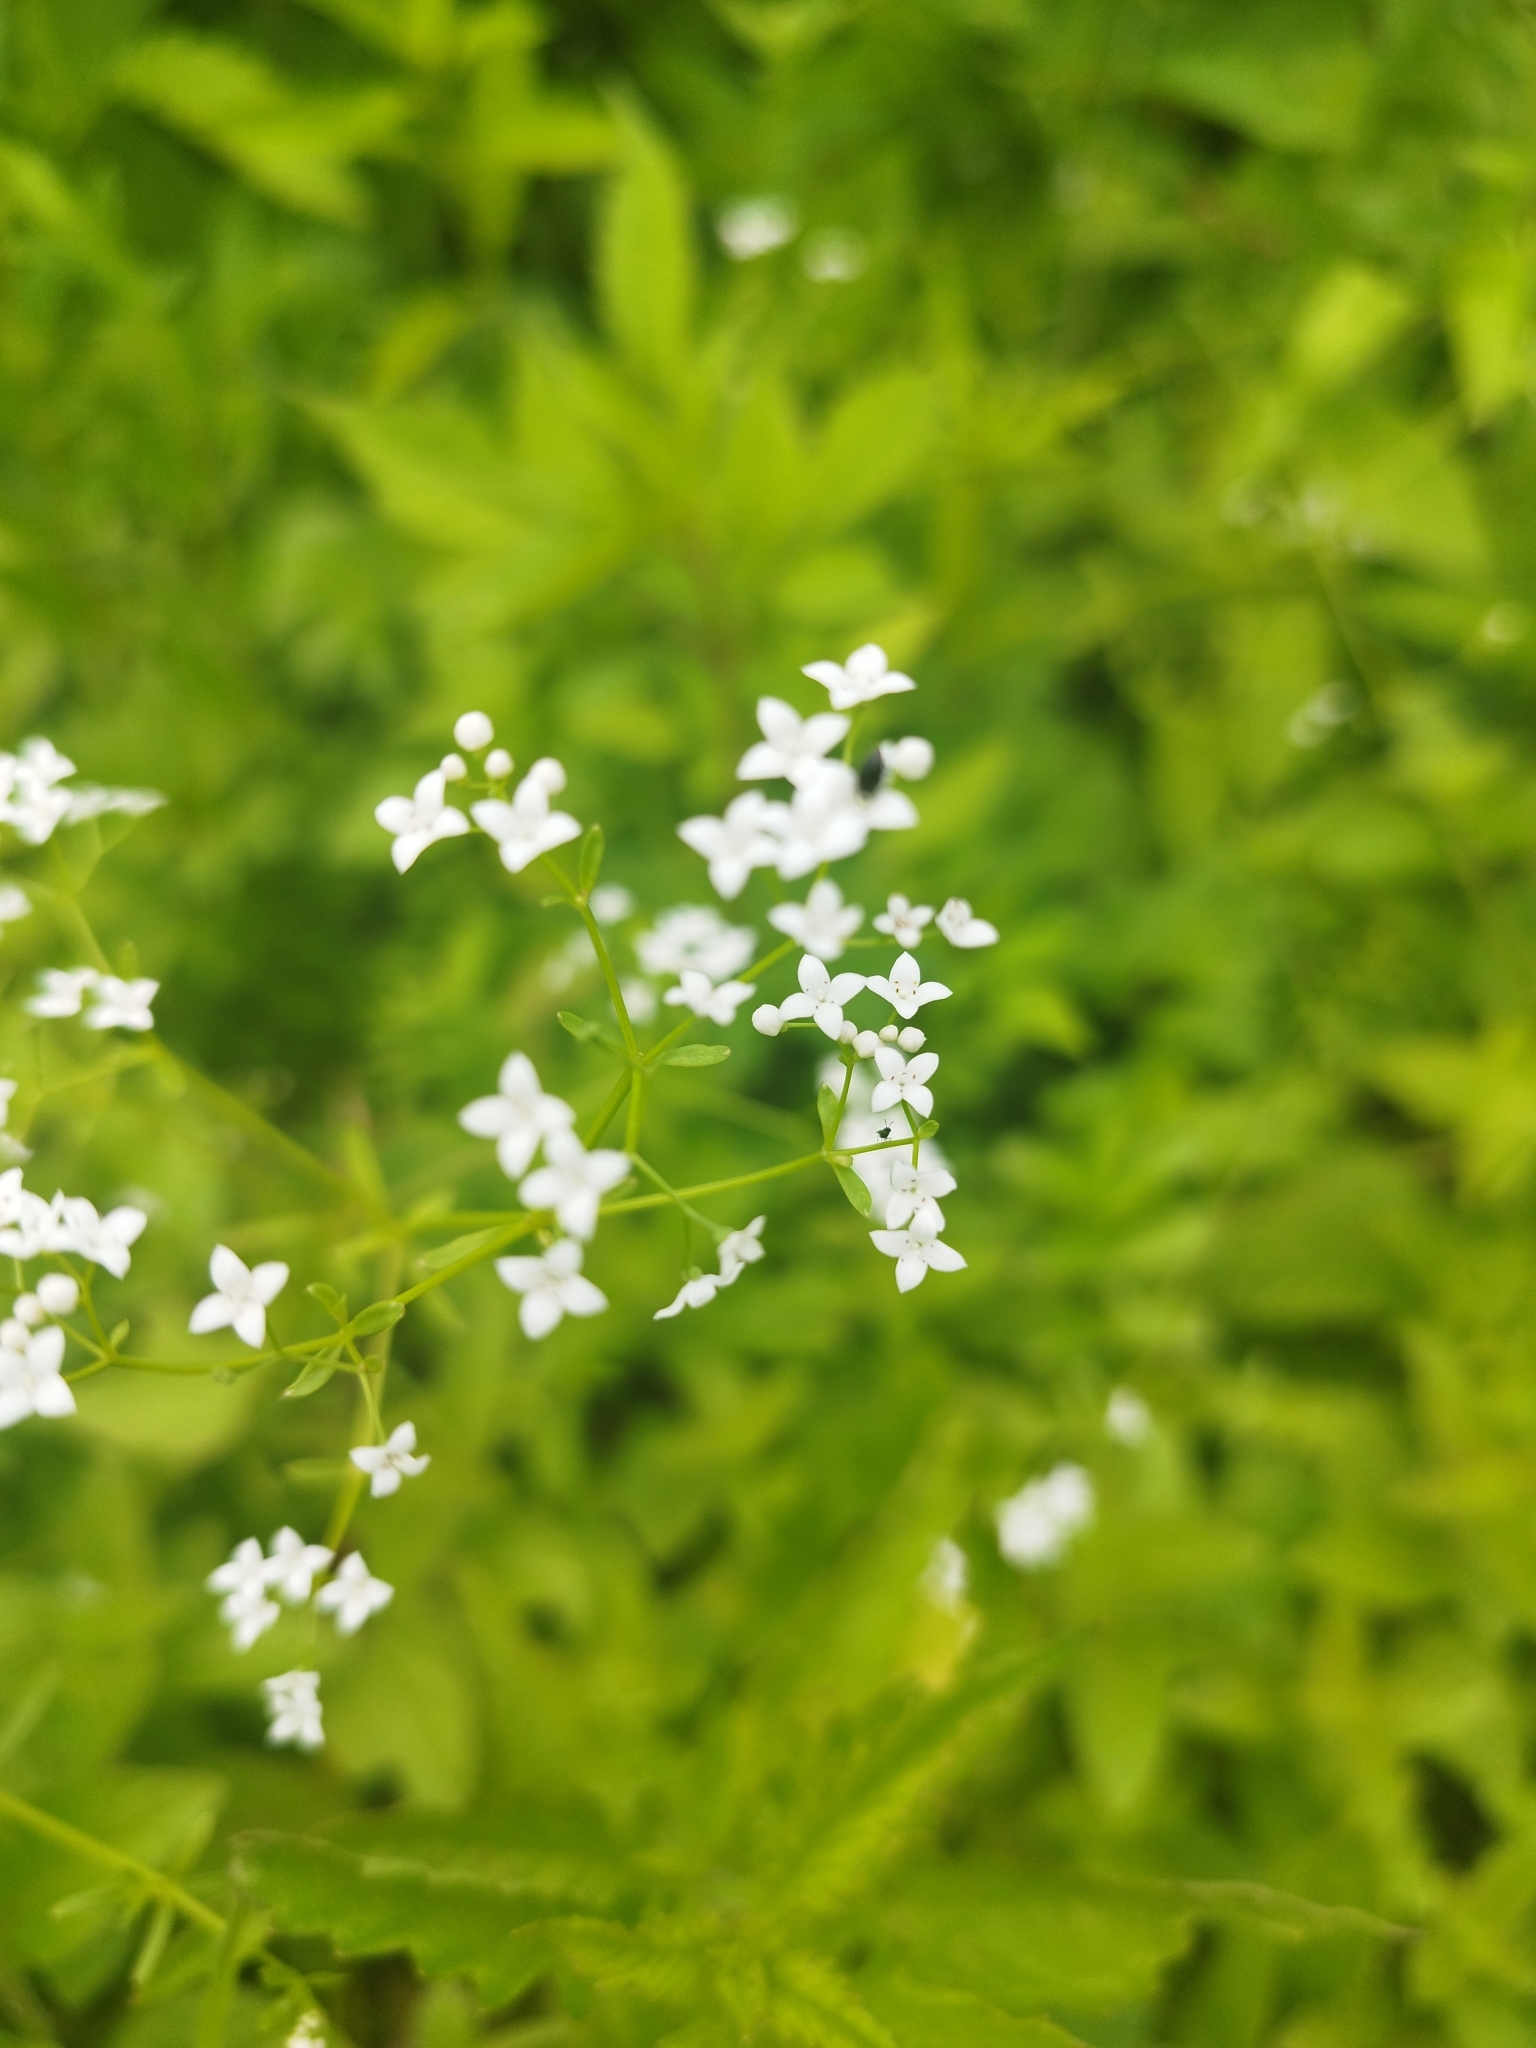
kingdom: Plantae
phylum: Tracheophyta
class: Magnoliopsida
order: Gentianales
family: Rubiaceae
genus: Galium
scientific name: Galium palustre
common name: Common marsh-bedstraw
